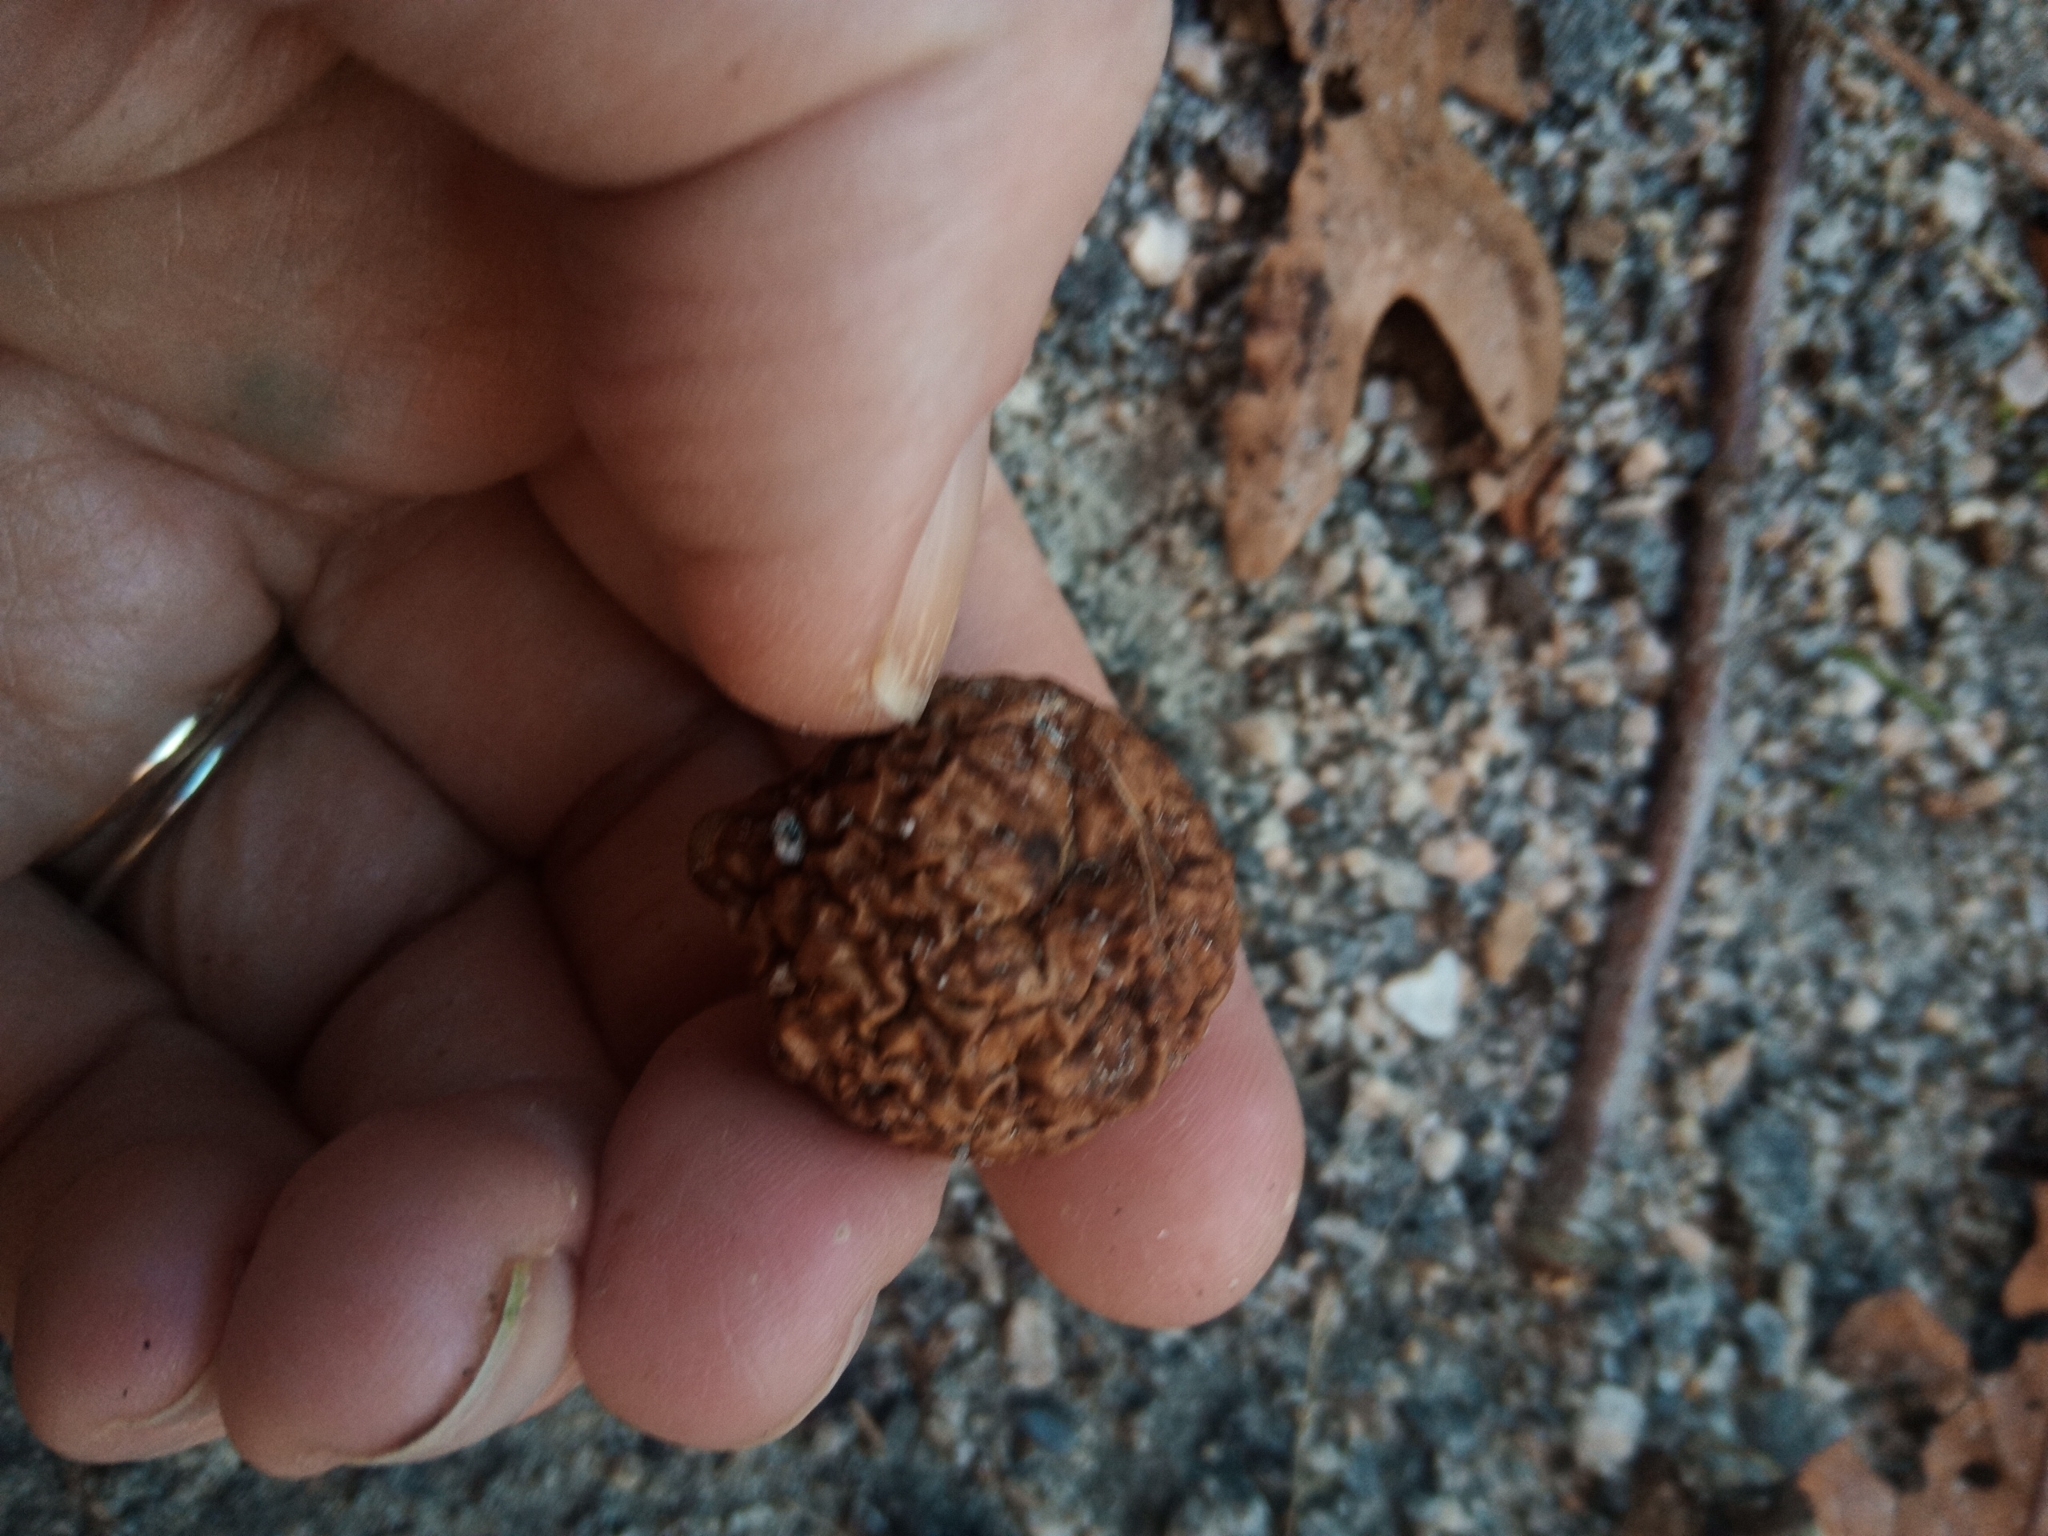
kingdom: Animalia
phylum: Arthropoda
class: Insecta
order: Hymenoptera
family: Cynipidae
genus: Amphibolips
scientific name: Amphibolips
